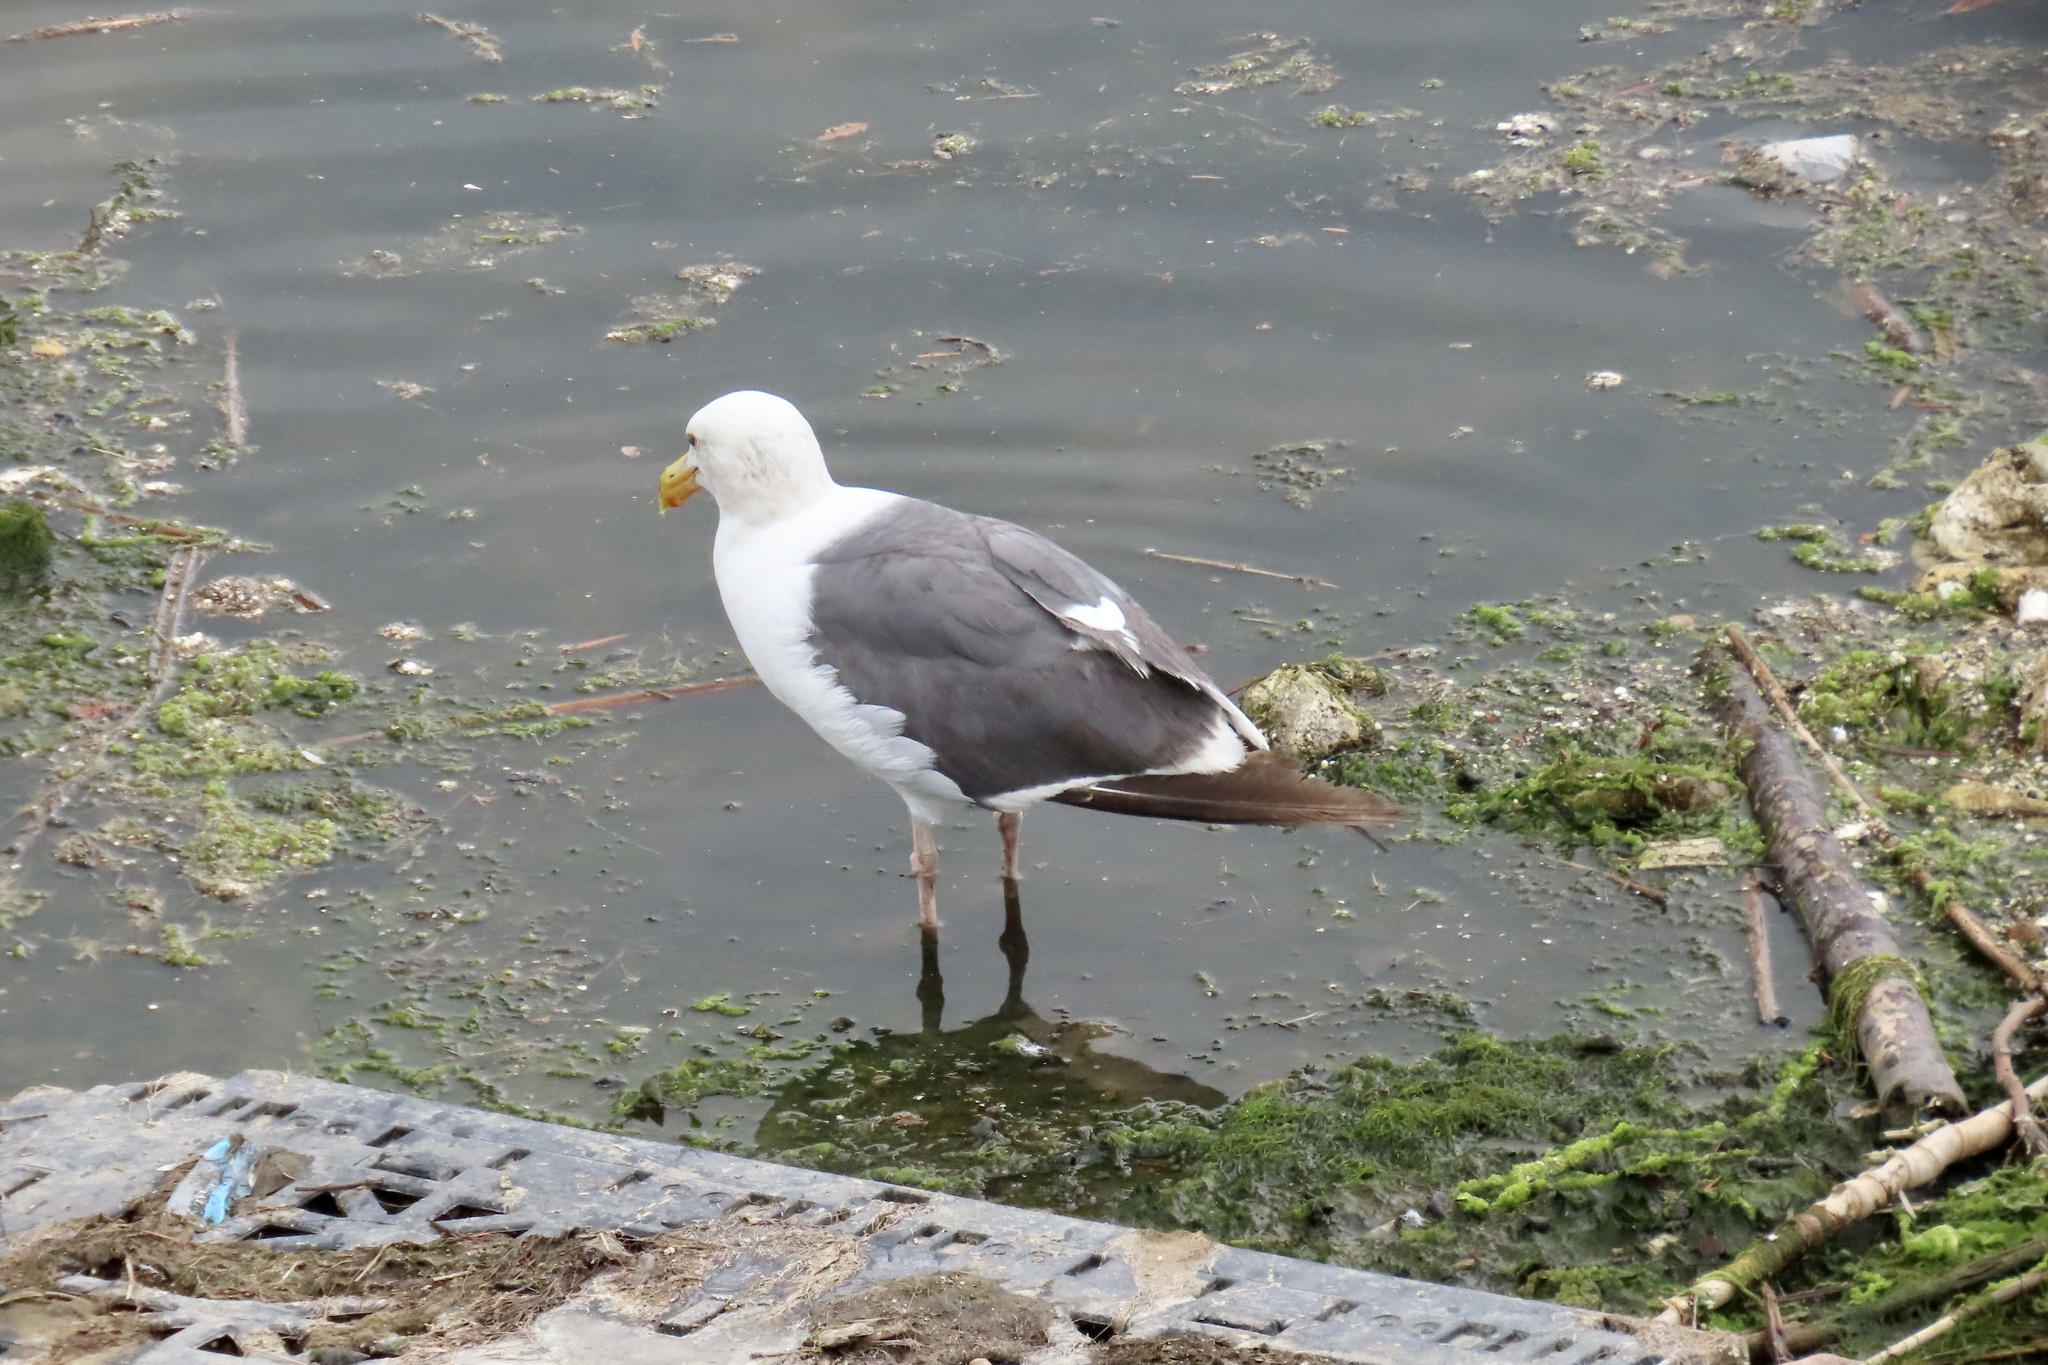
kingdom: Animalia
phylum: Chordata
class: Aves
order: Charadriiformes
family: Laridae
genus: Larus
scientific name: Larus occidentalis
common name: Western gull
